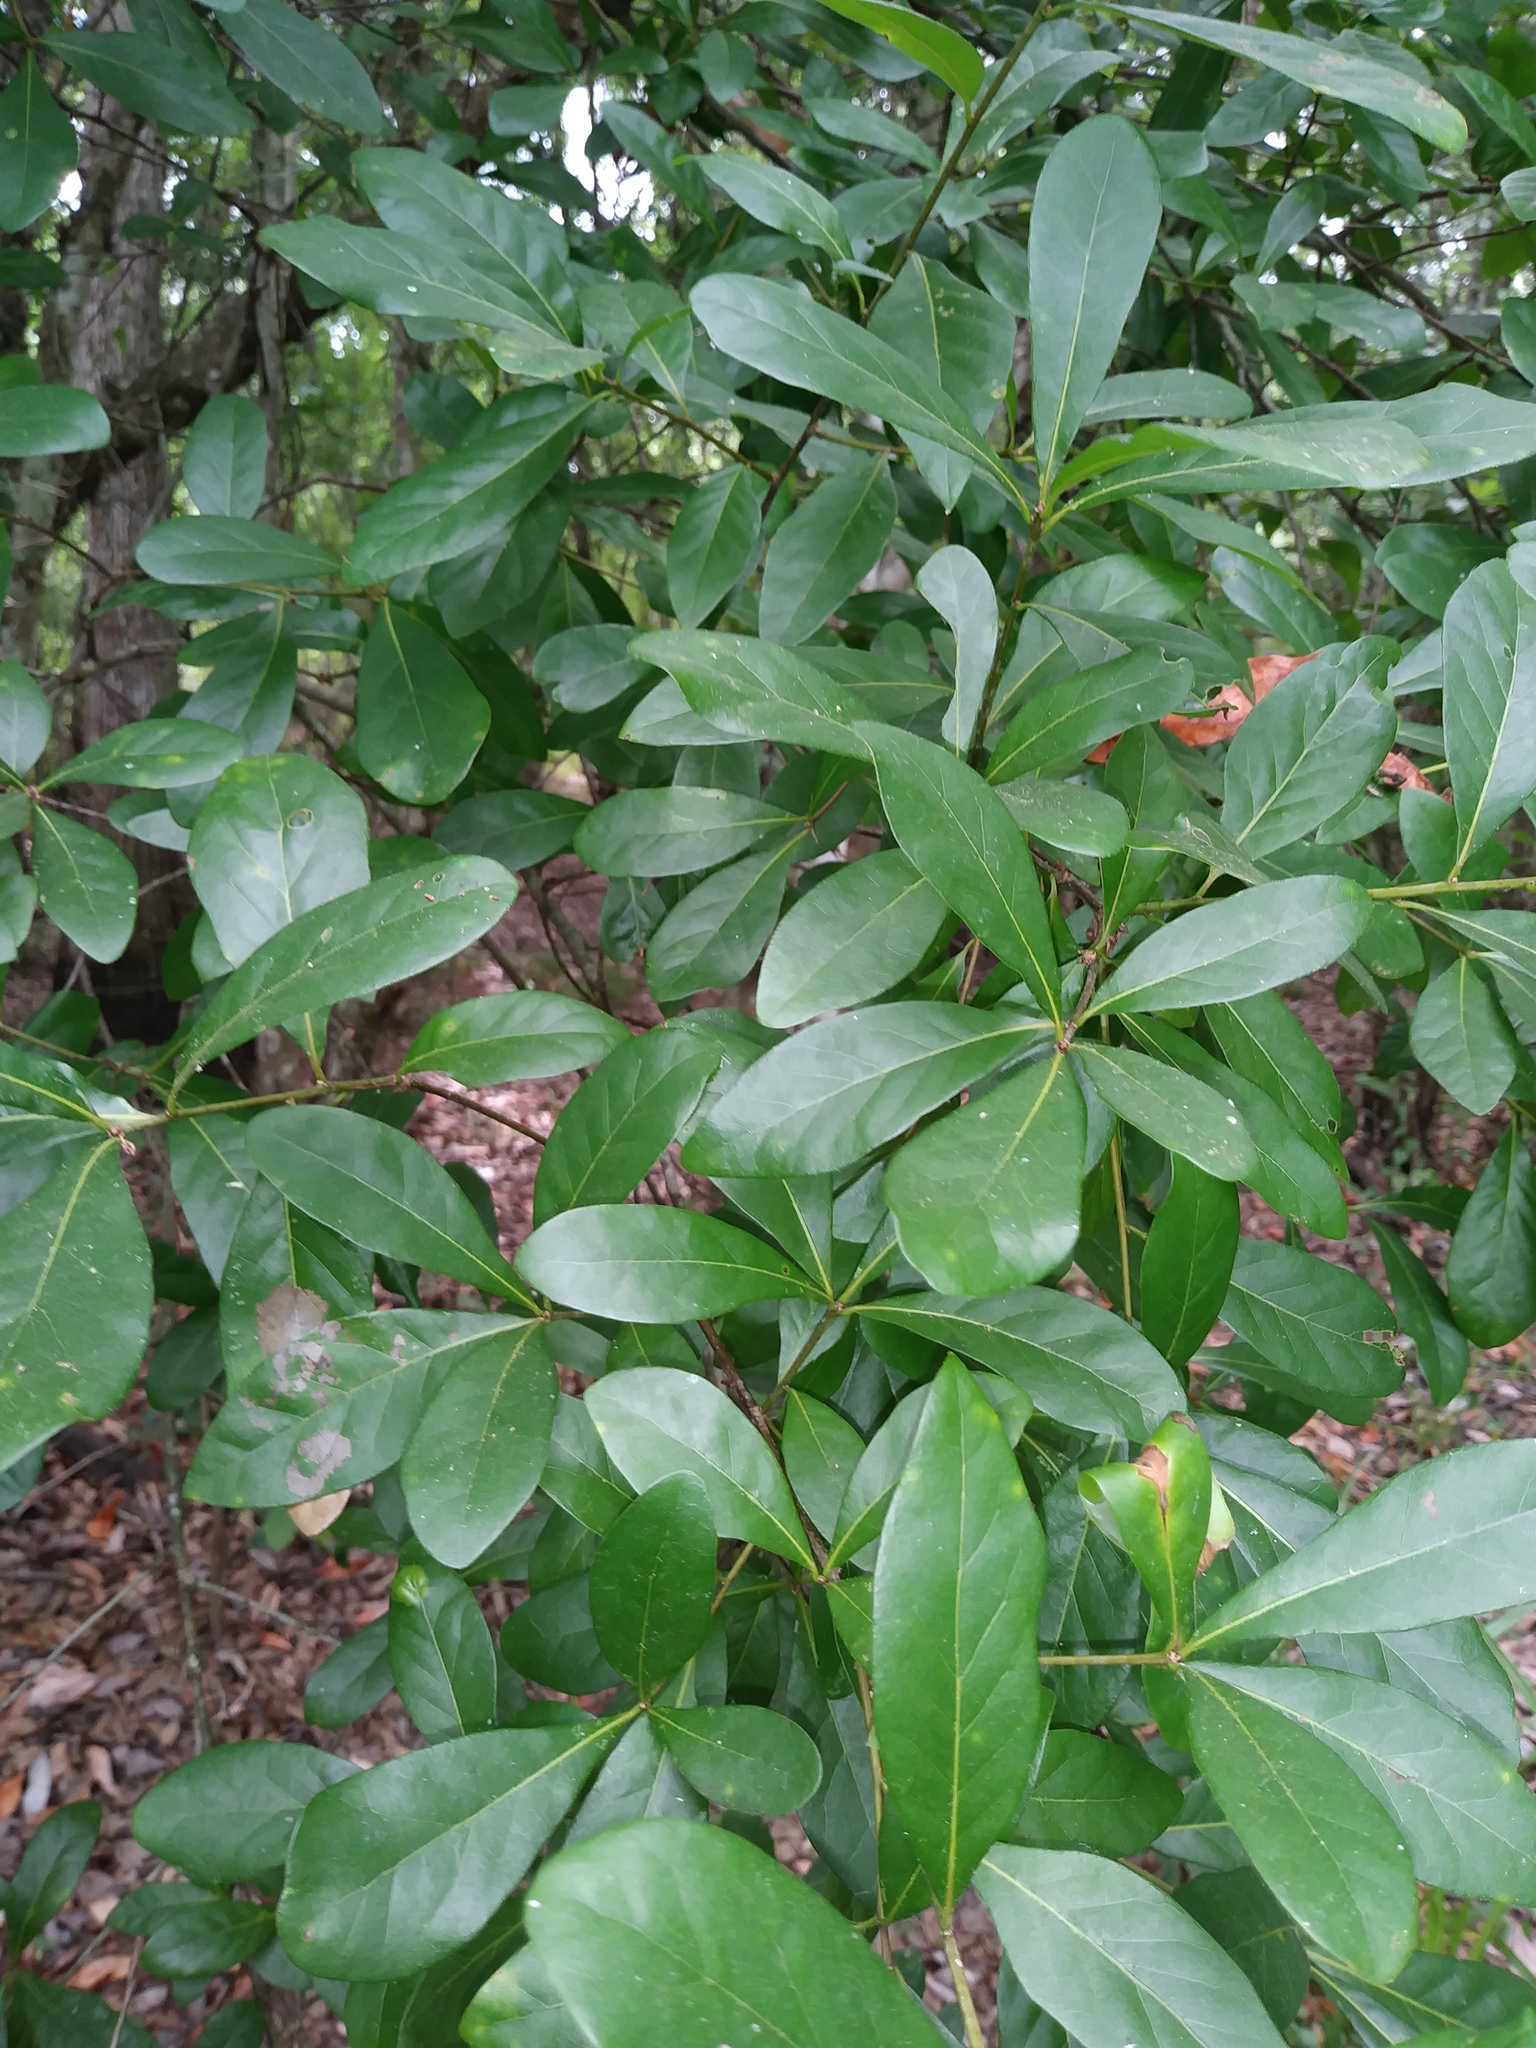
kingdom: Plantae
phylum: Tracheophyta
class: Magnoliopsida
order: Fagales
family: Fagaceae
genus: Quercus
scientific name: Quercus laurifolia
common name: Swamp laurel oak
